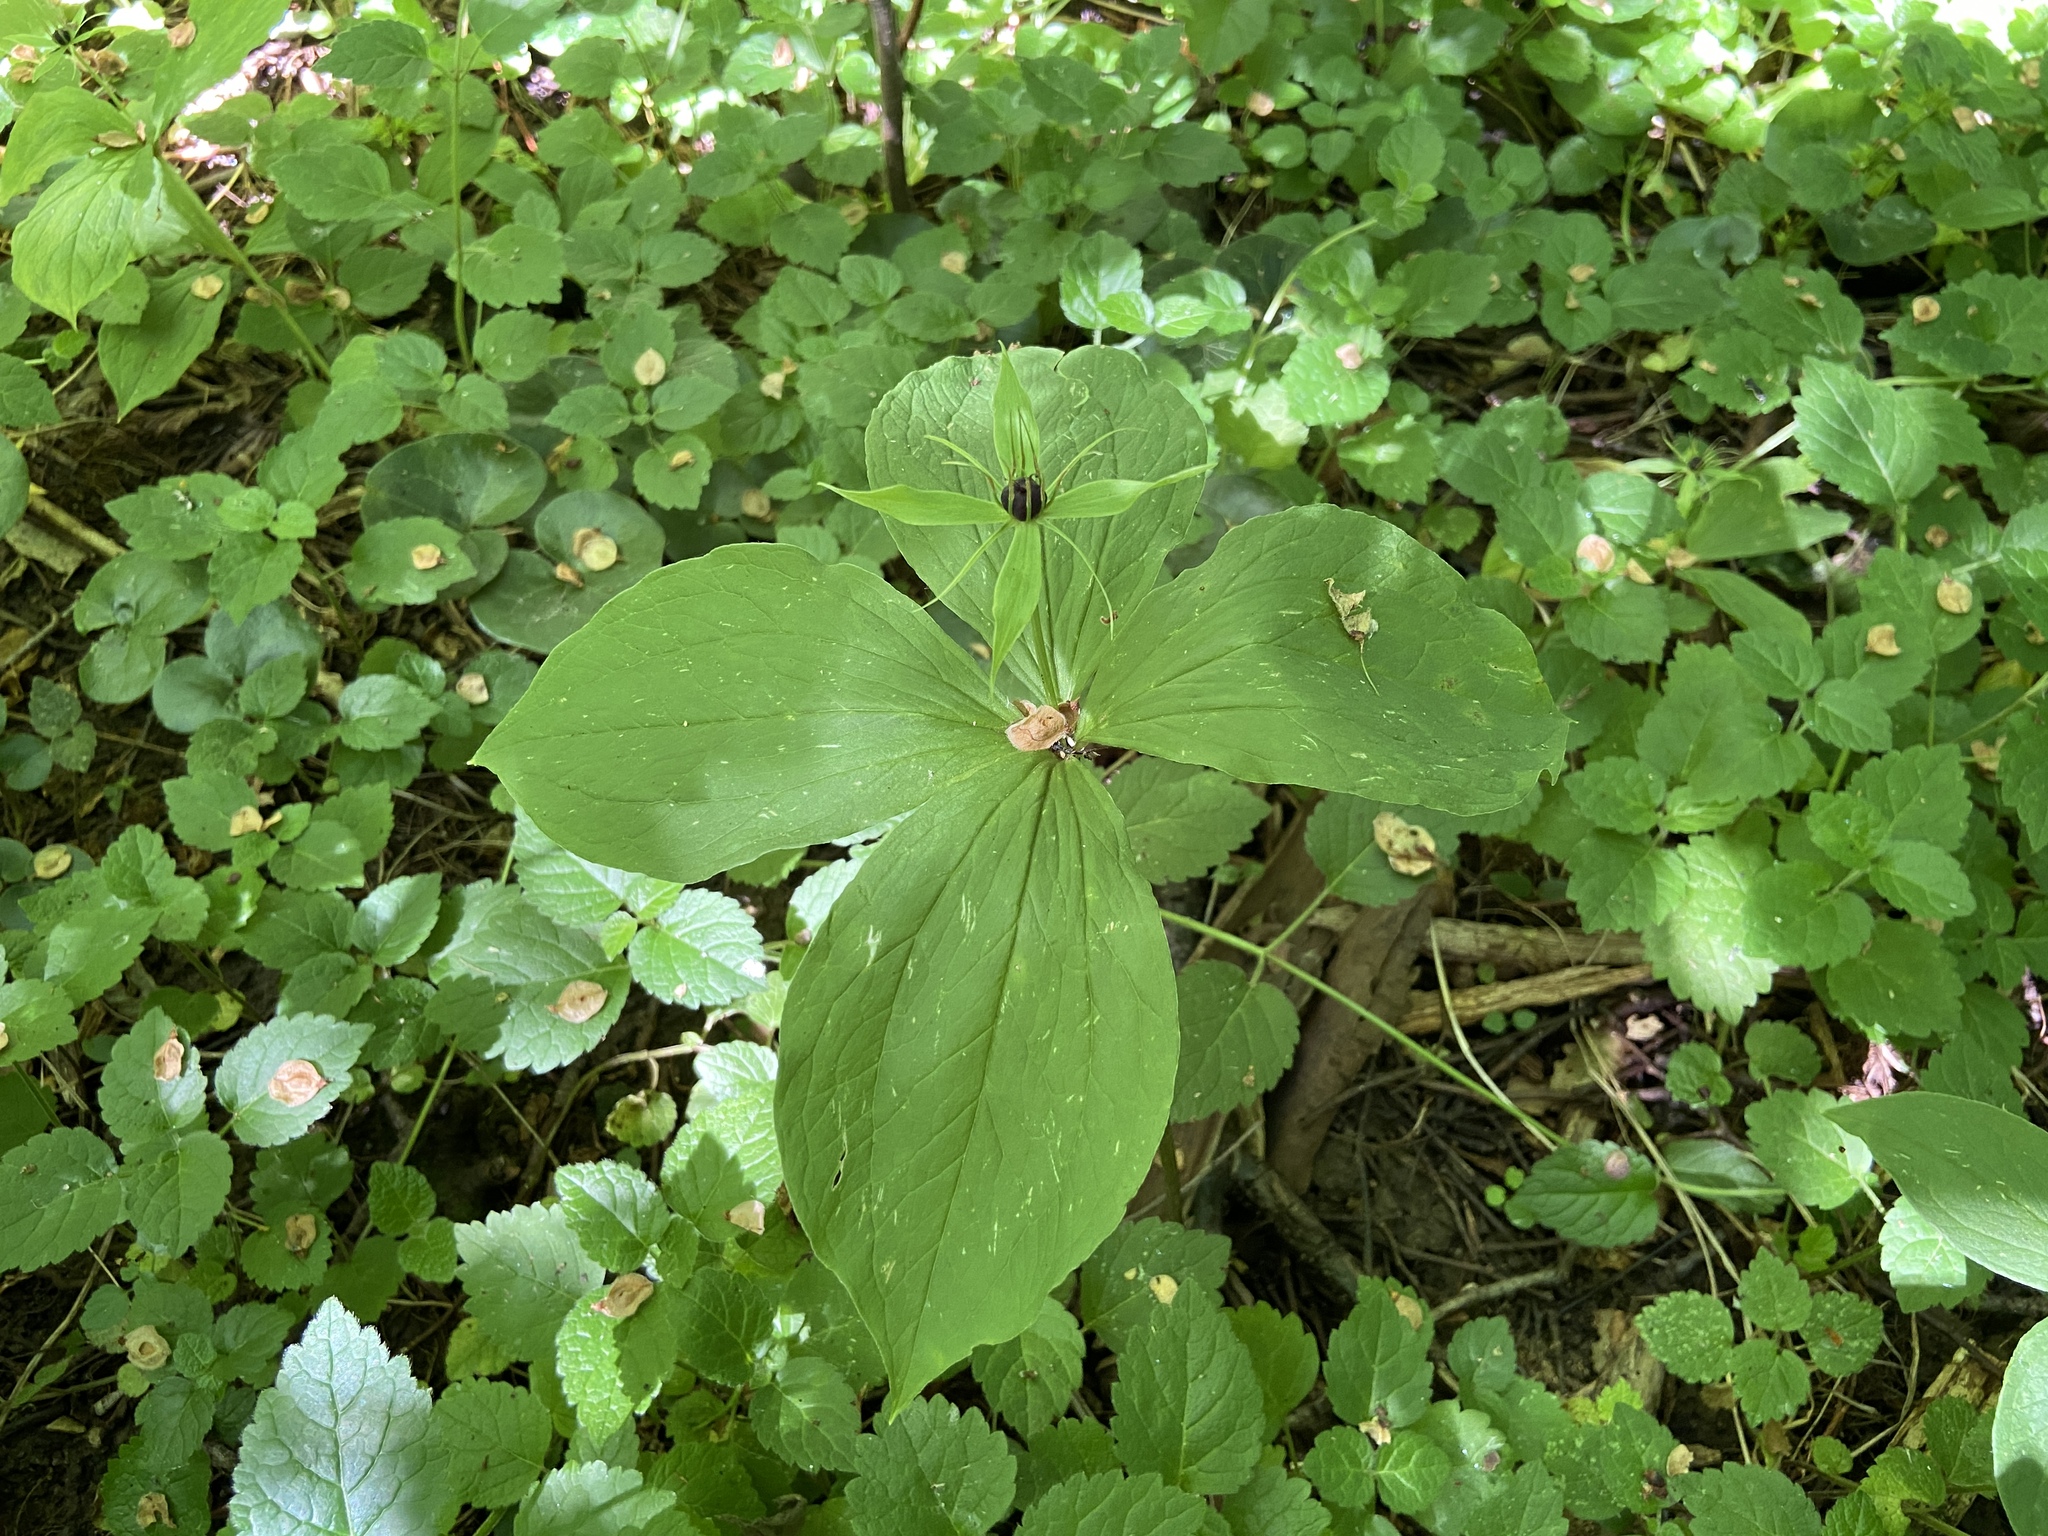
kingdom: Plantae
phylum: Tracheophyta
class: Liliopsida
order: Liliales
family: Melanthiaceae
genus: Paris
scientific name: Paris quadrifolia
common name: Herb-paris
